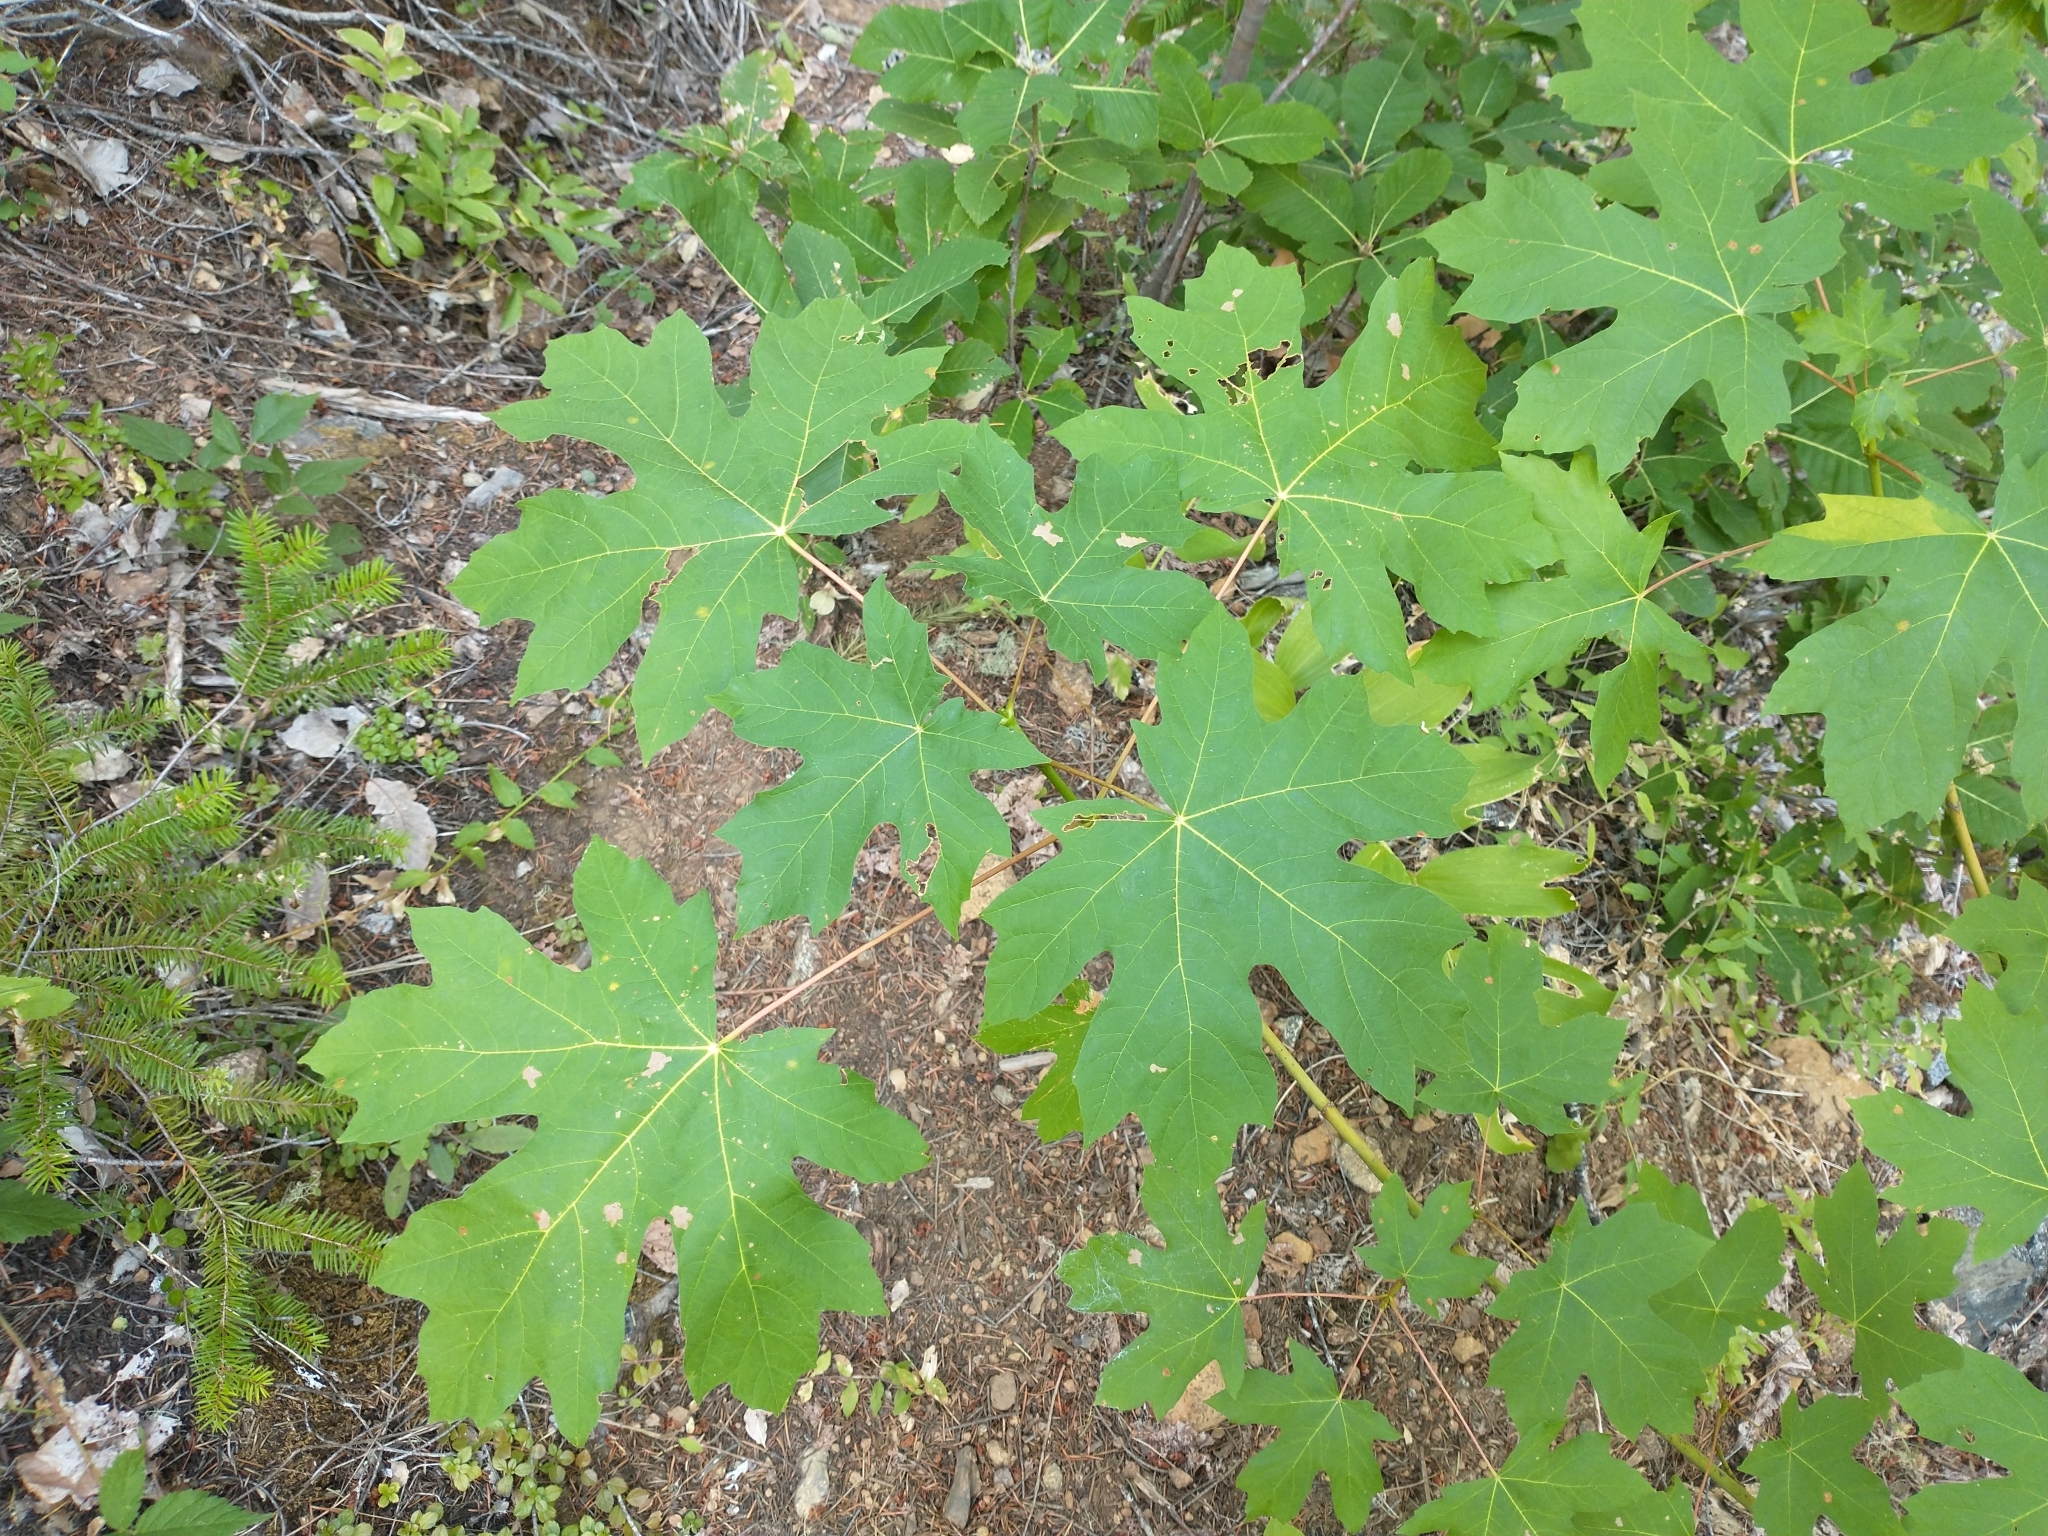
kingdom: Plantae
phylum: Tracheophyta
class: Magnoliopsida
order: Sapindales
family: Sapindaceae
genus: Acer
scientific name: Acer macrophyllum
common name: Oregon maple
